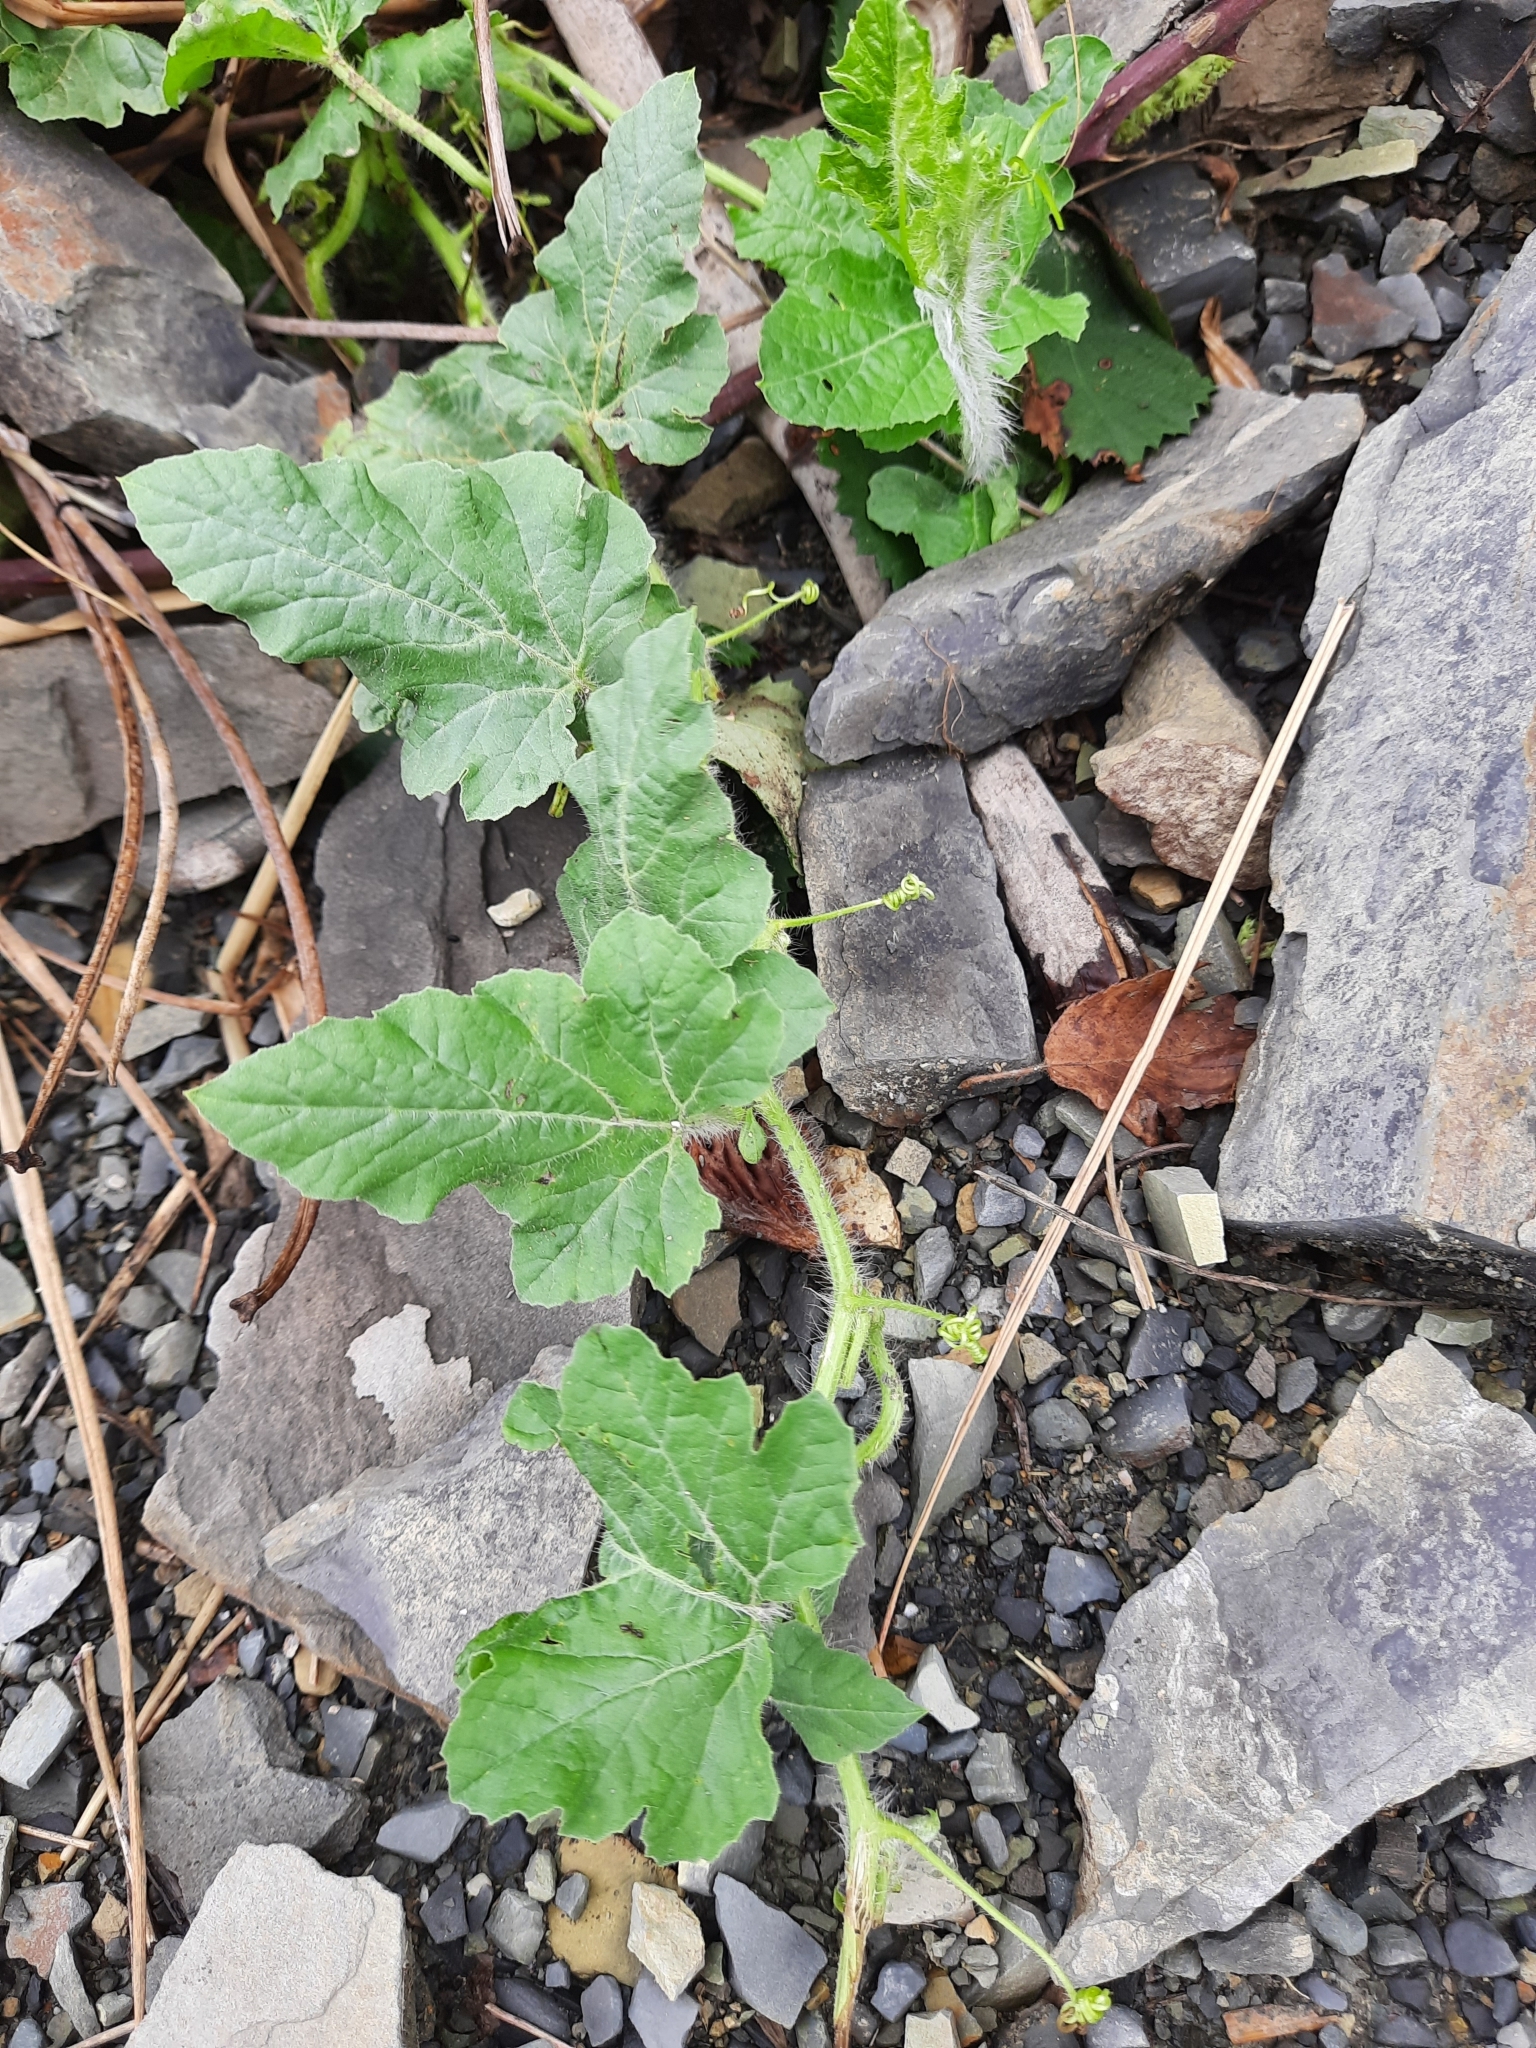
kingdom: Plantae
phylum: Tracheophyta
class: Magnoliopsida
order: Cucurbitales
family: Cucurbitaceae
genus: Citrullus
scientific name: Citrullus lanatus
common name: Watermelon
